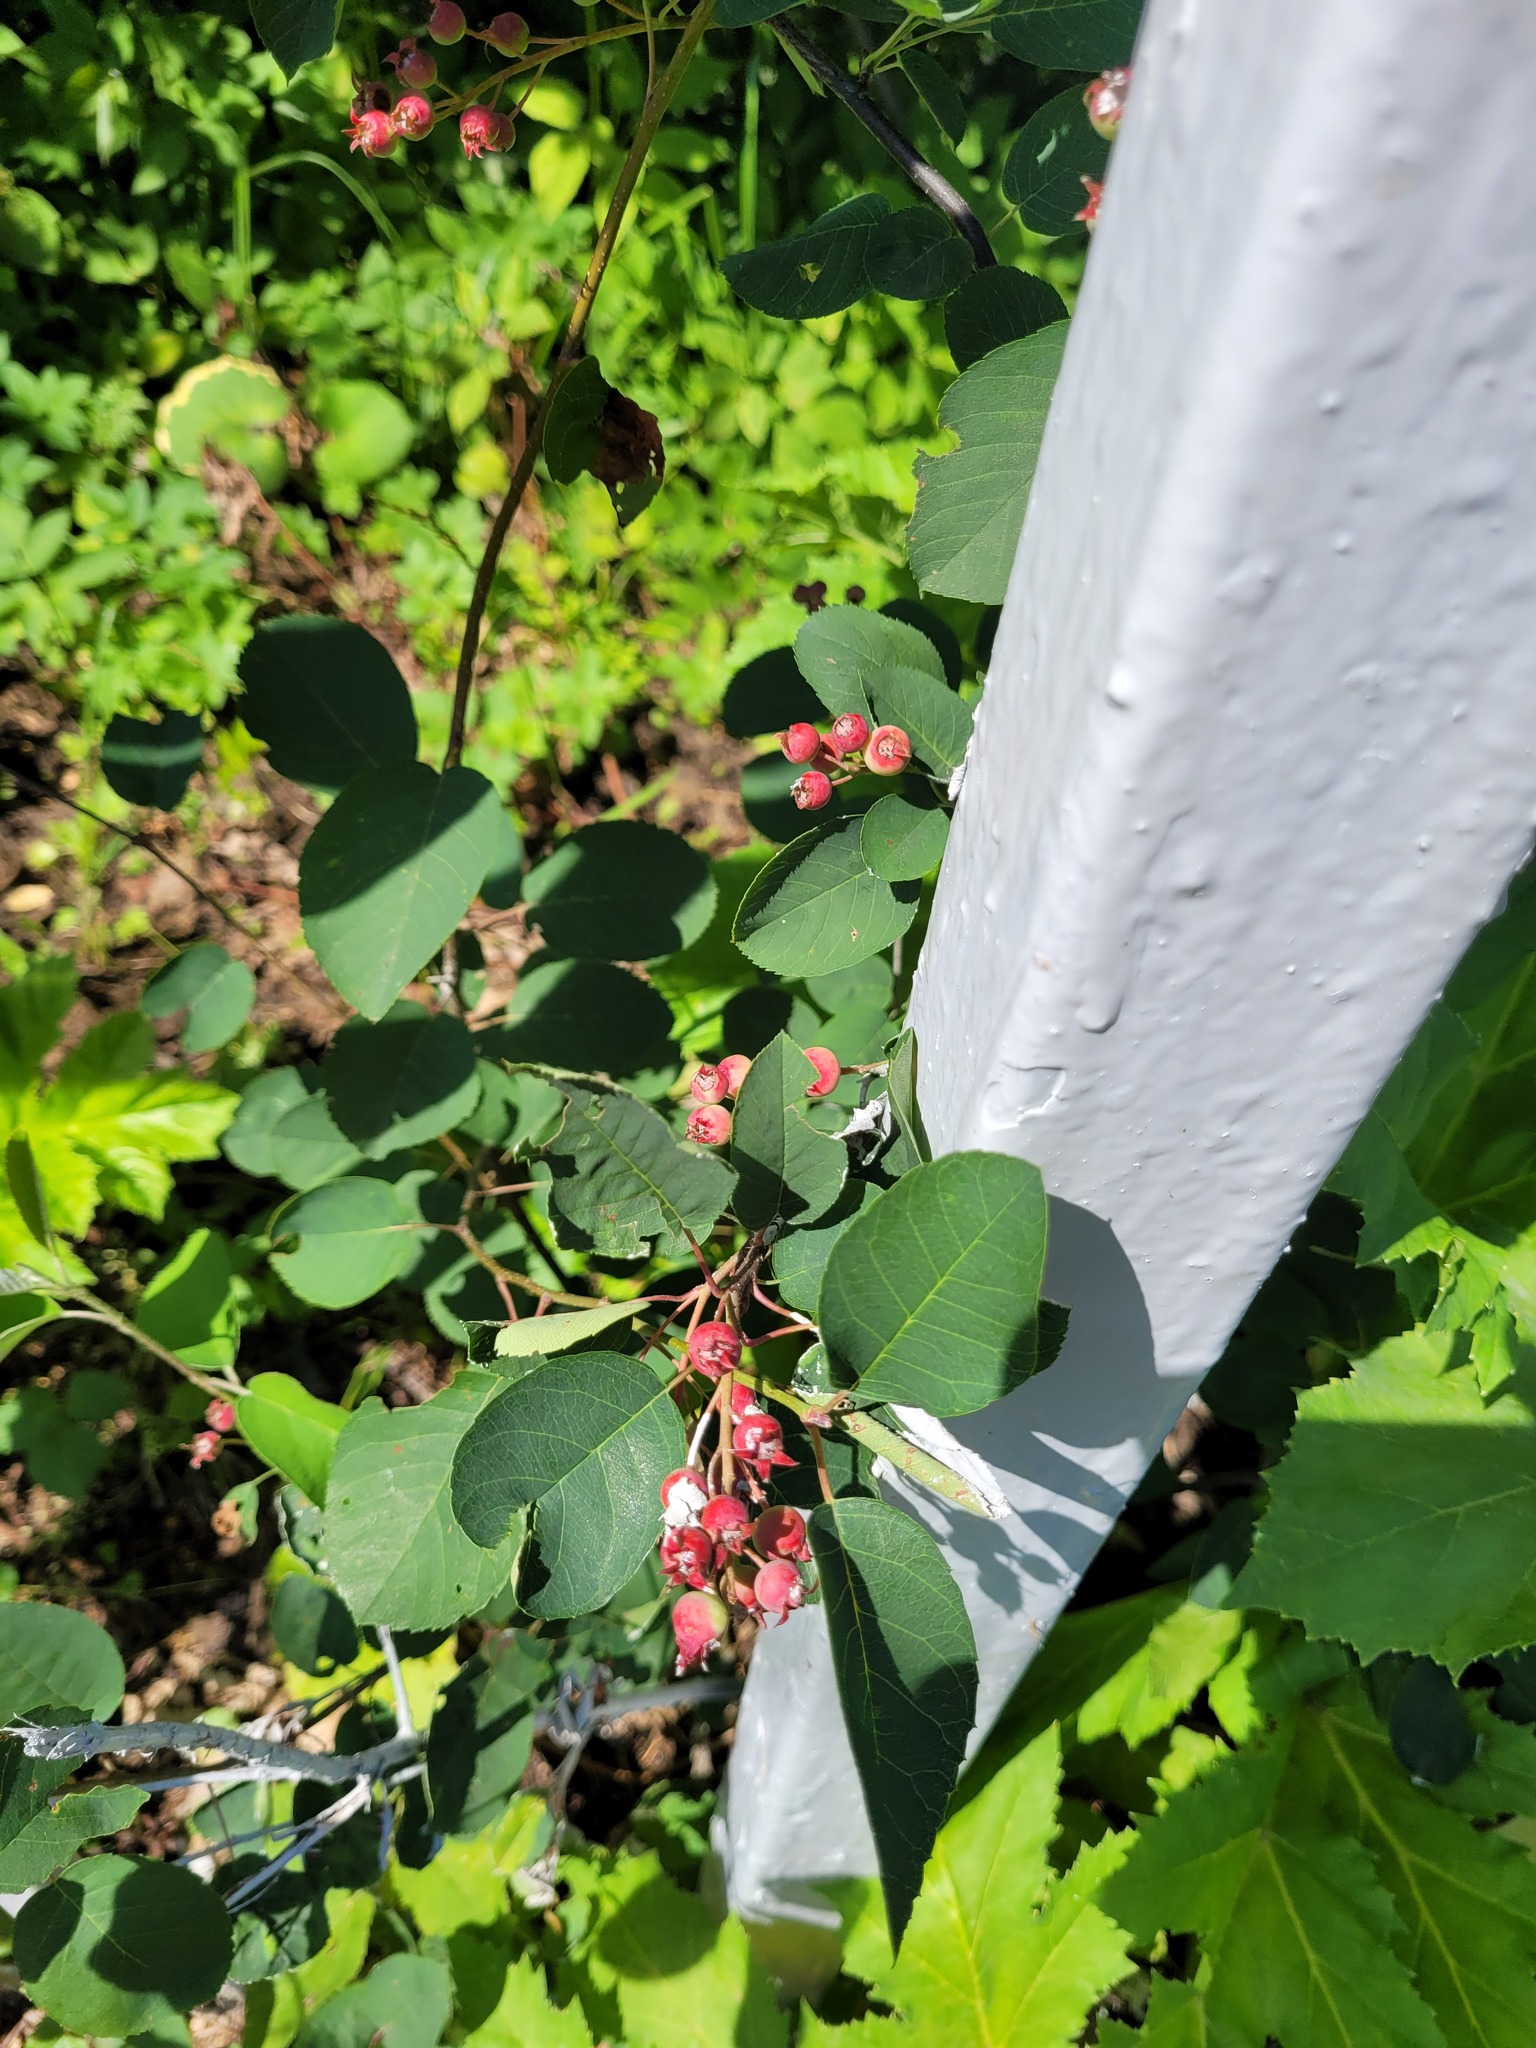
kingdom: Plantae
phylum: Tracheophyta
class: Magnoliopsida
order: Rosales
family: Rosaceae
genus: Amelanchier
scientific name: Amelanchier
